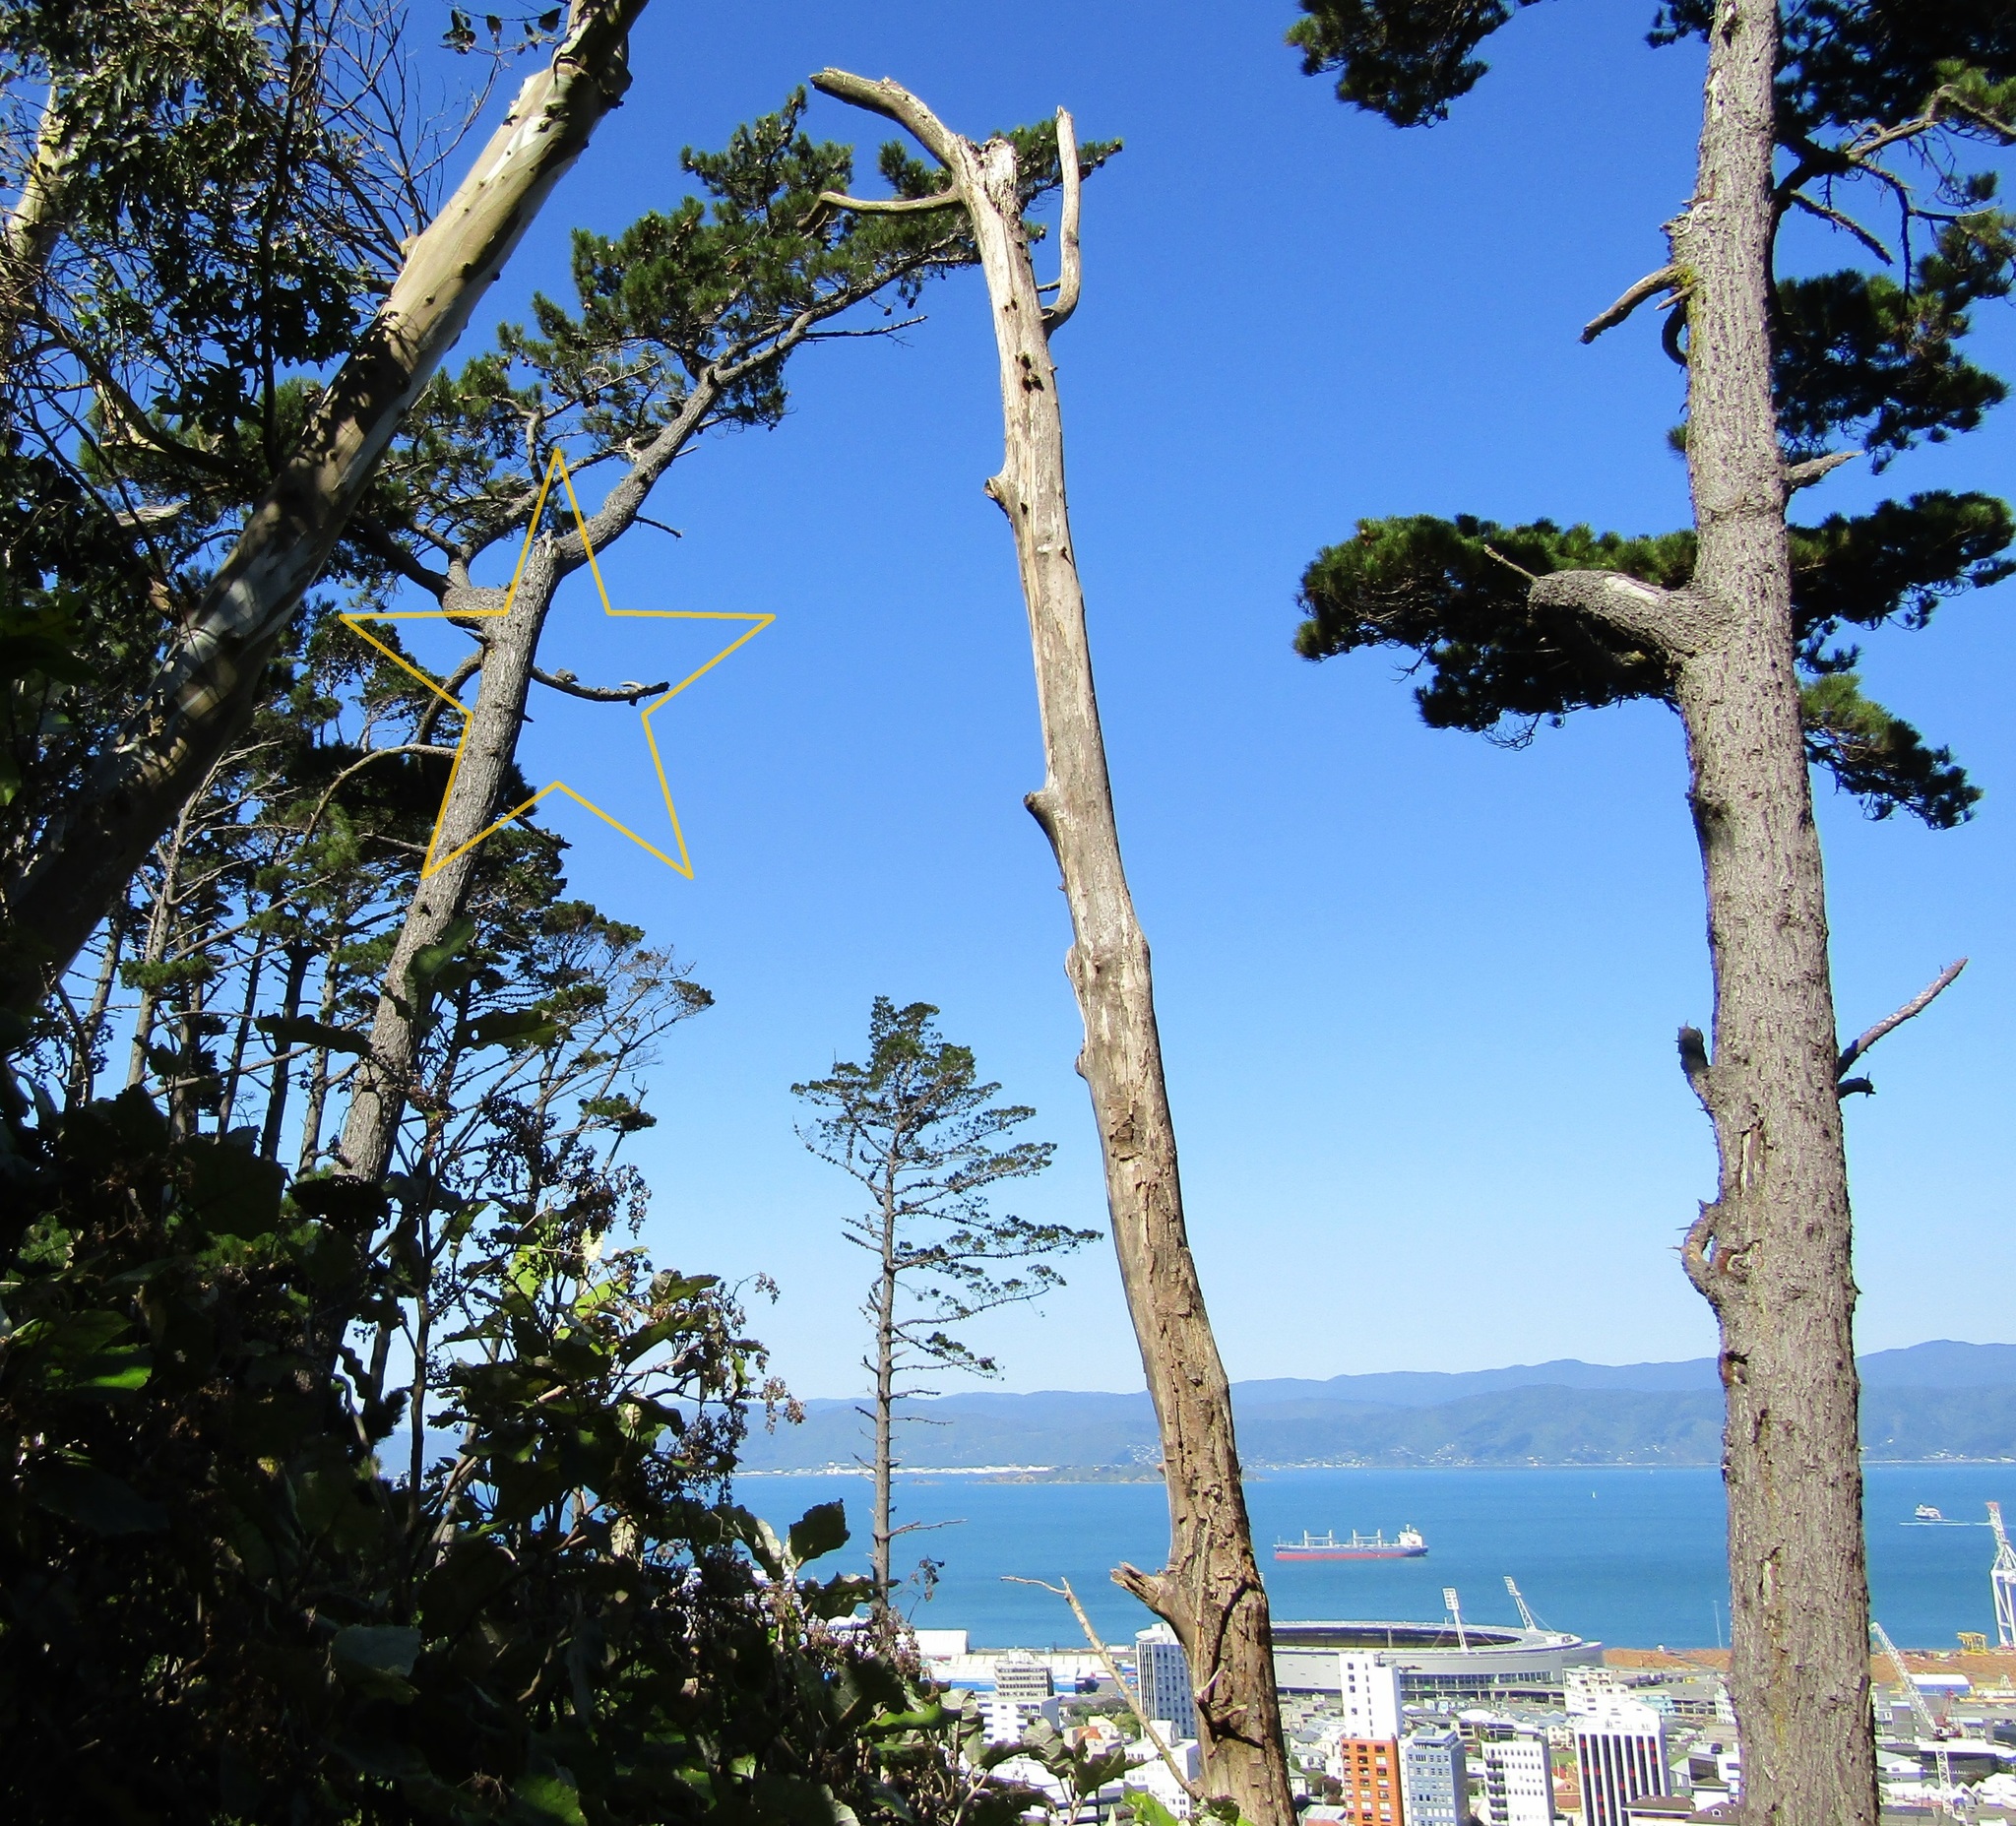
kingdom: Animalia
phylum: Chordata
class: Aves
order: Columbiformes
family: Columbidae
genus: Hemiphaga
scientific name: Hemiphaga novaeseelandiae
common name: New zealand pigeon
